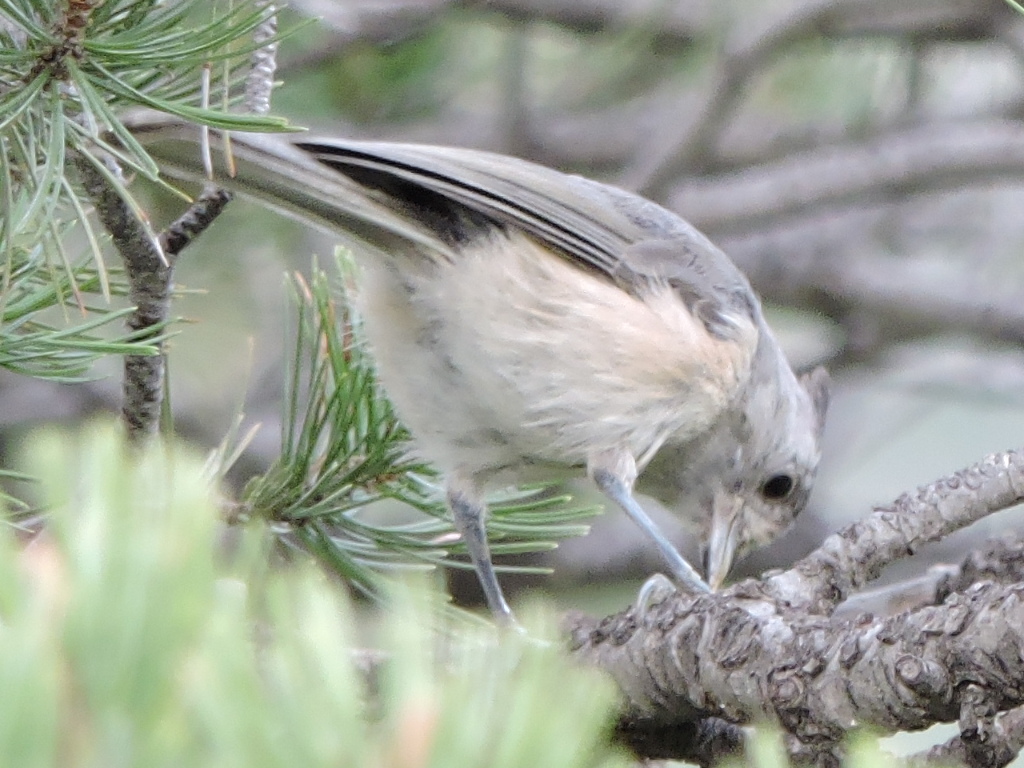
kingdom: Animalia
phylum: Chordata
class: Aves
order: Passeriformes
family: Paridae
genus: Baeolophus
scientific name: Baeolophus atricristatus
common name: Black-crested titmouse
